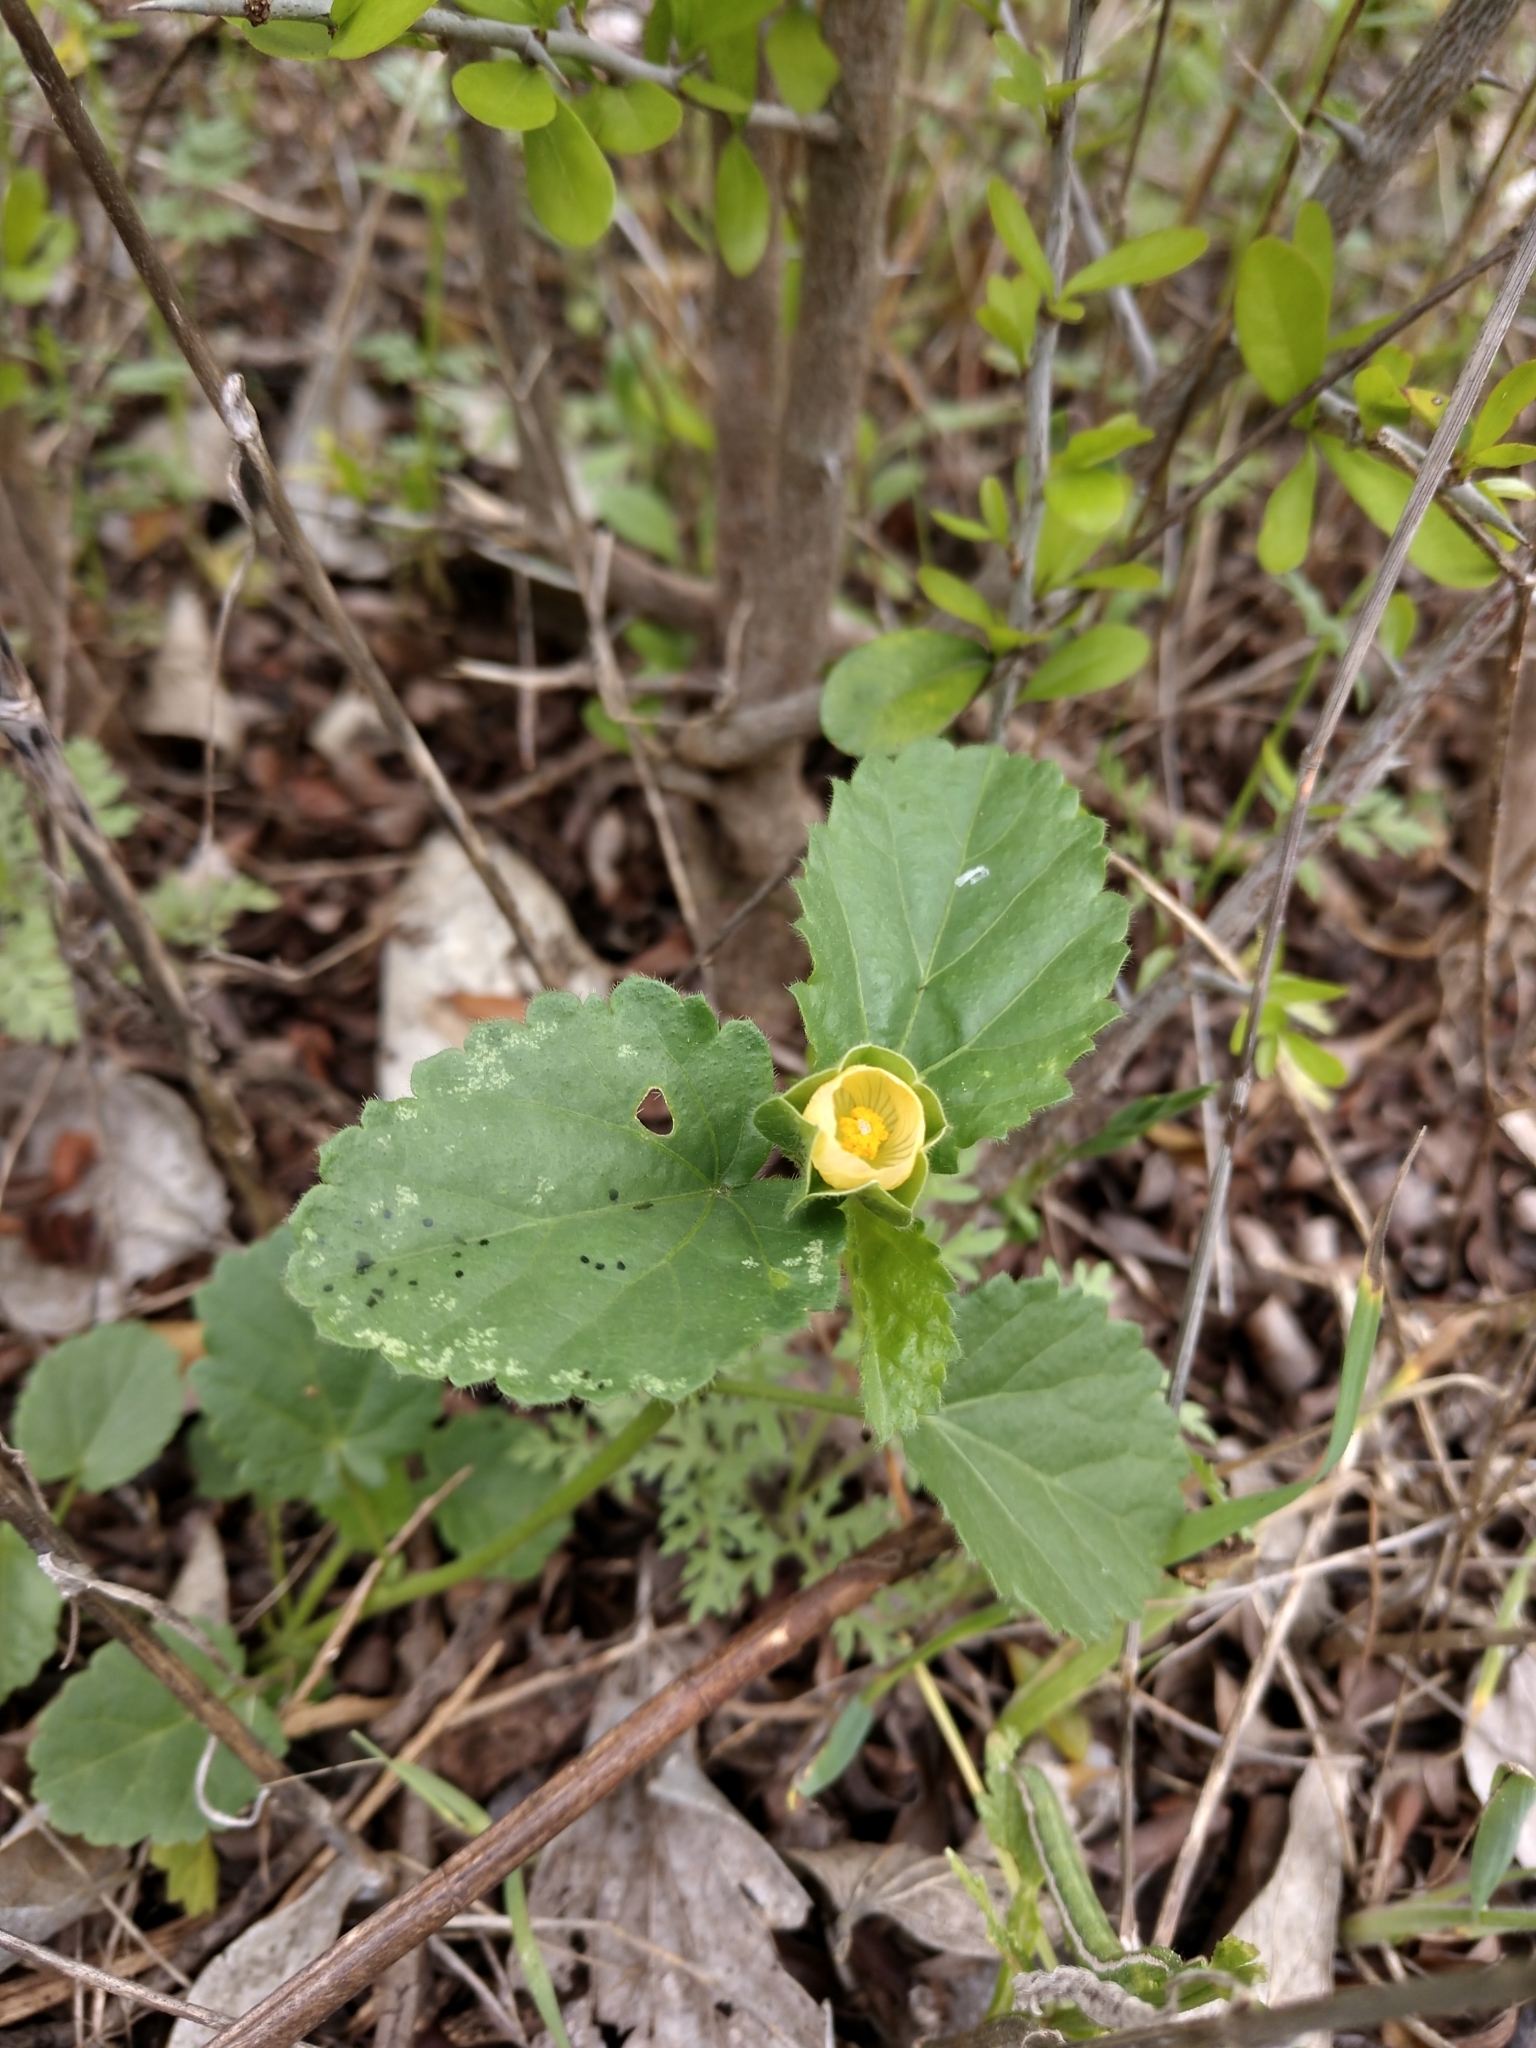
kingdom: Plantae
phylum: Tracheophyta
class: Magnoliopsida
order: Malvales
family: Malvaceae
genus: Rhynchosida
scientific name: Rhynchosida physocalyx
